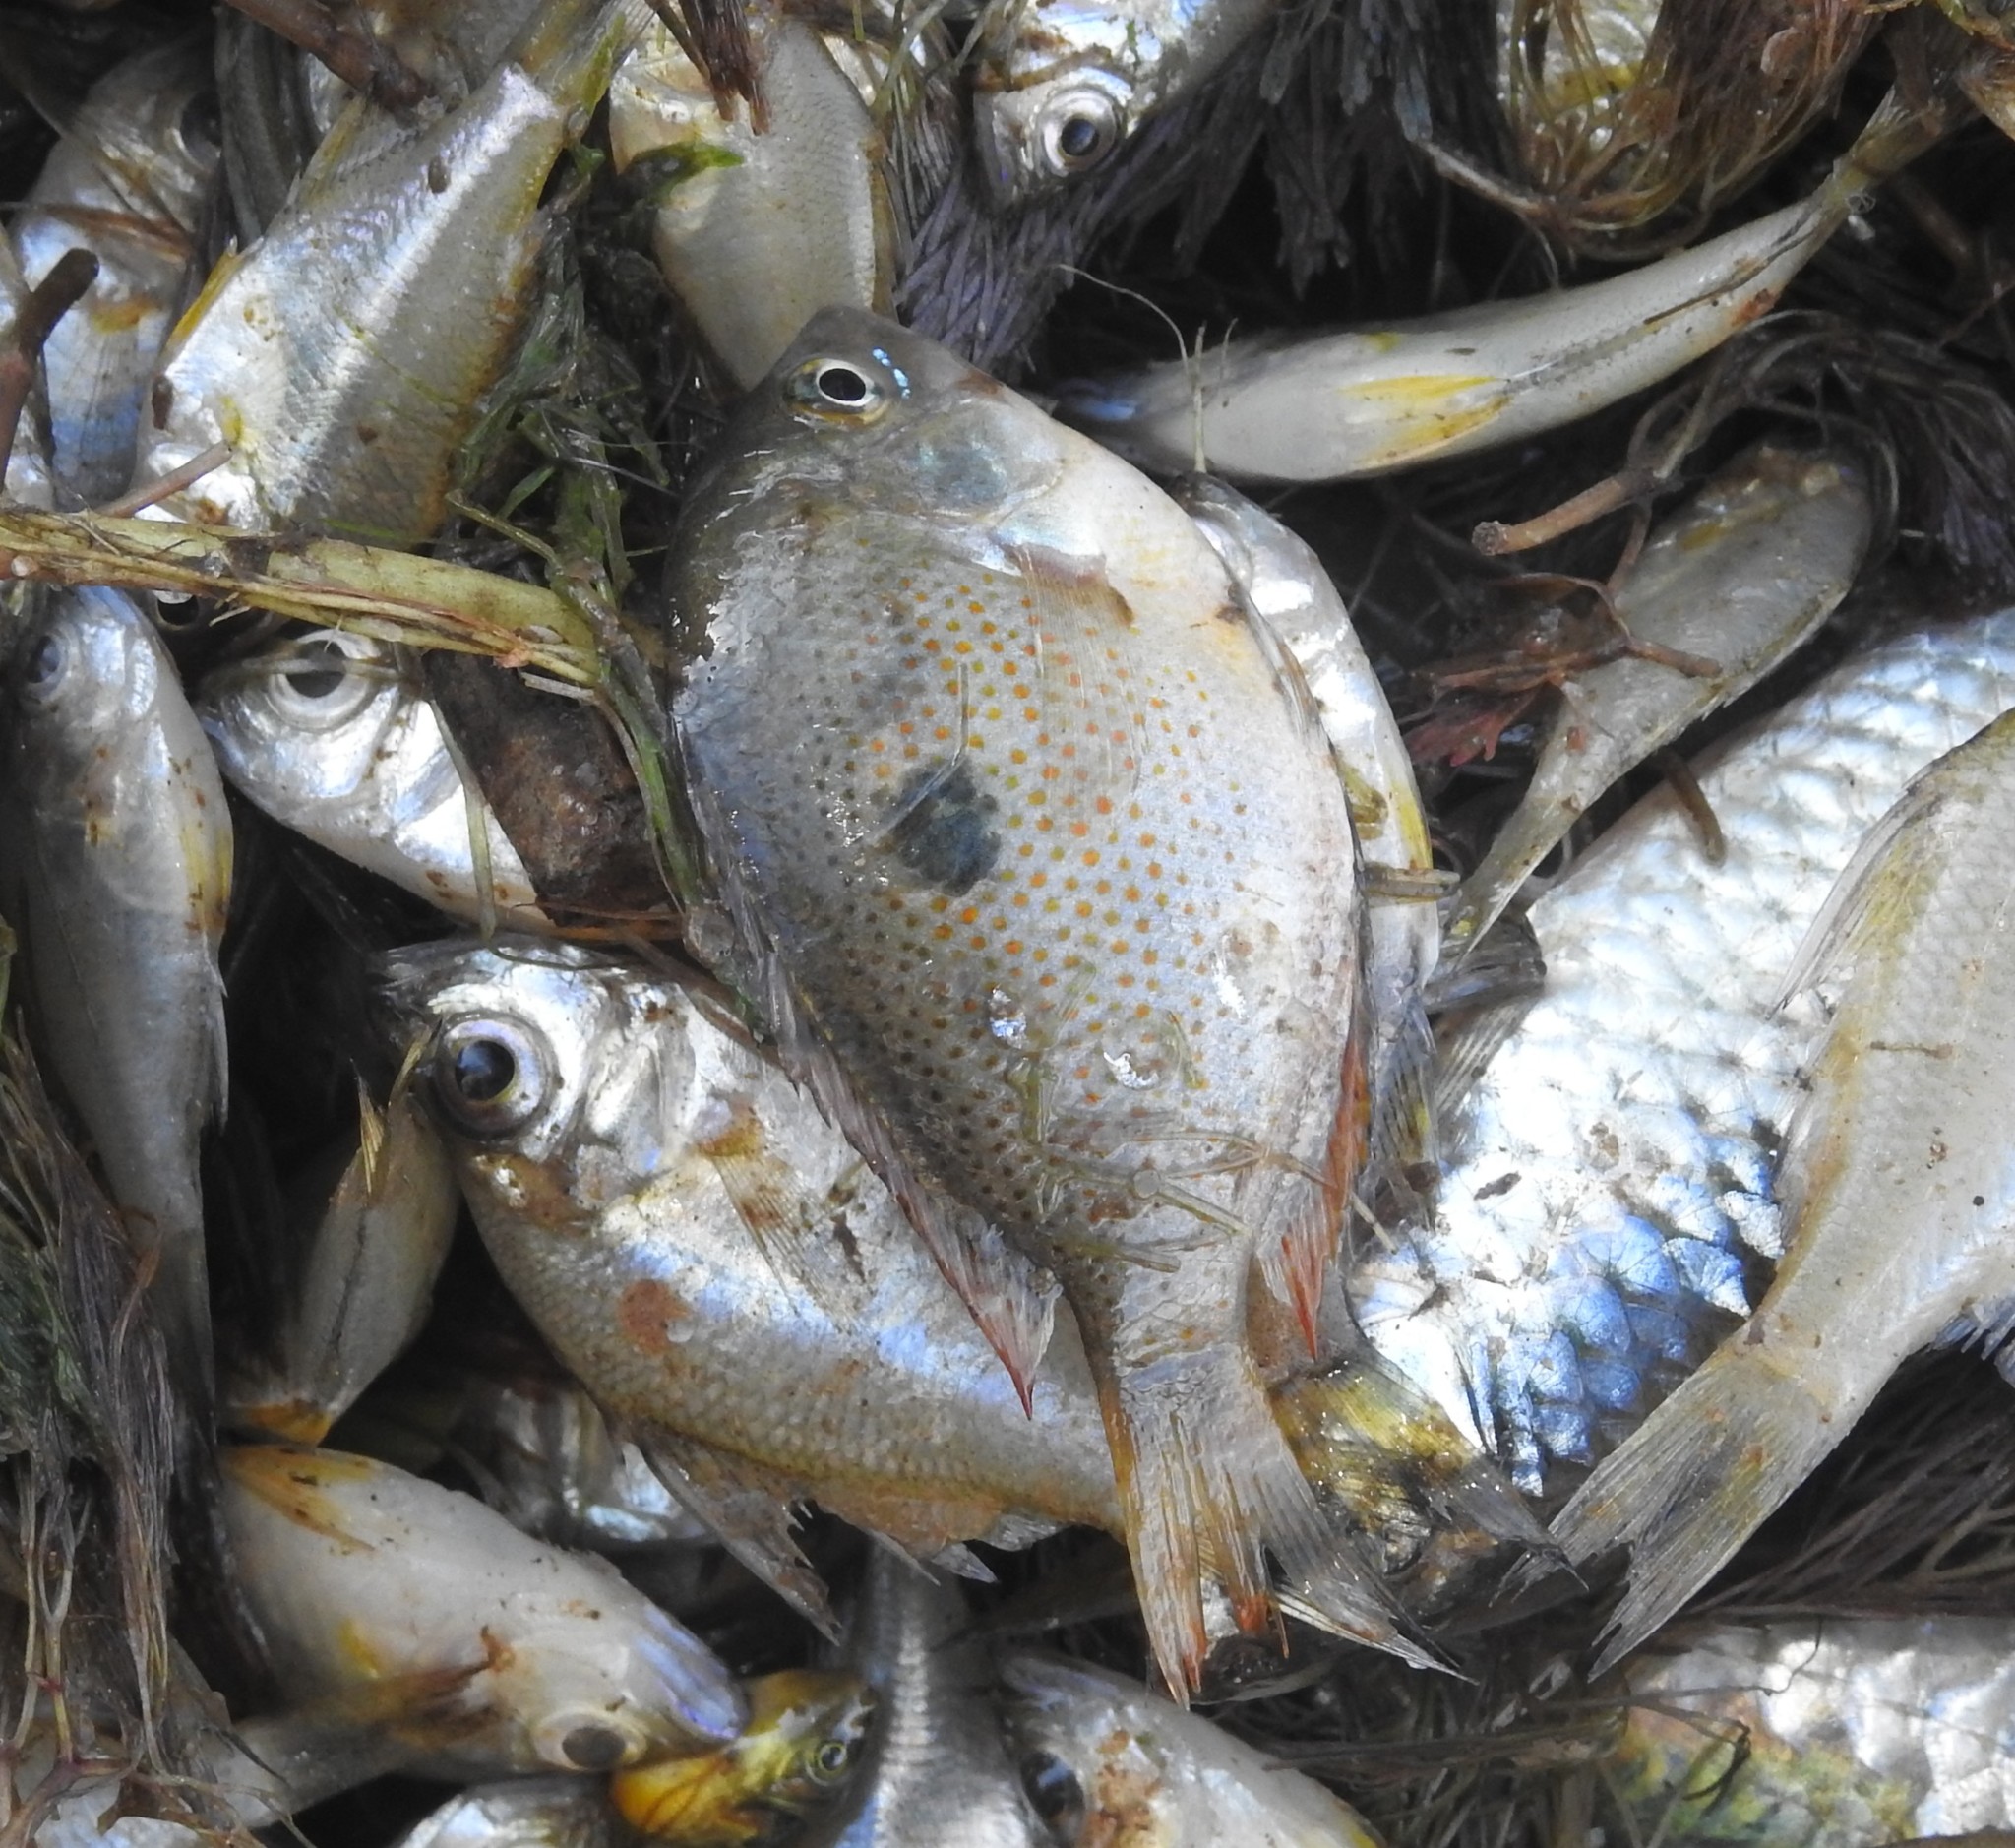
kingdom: Animalia
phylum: Chordata
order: Perciformes
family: Cichlidae
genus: Etroplus
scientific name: Etroplus maculatus
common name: Orange chromide
